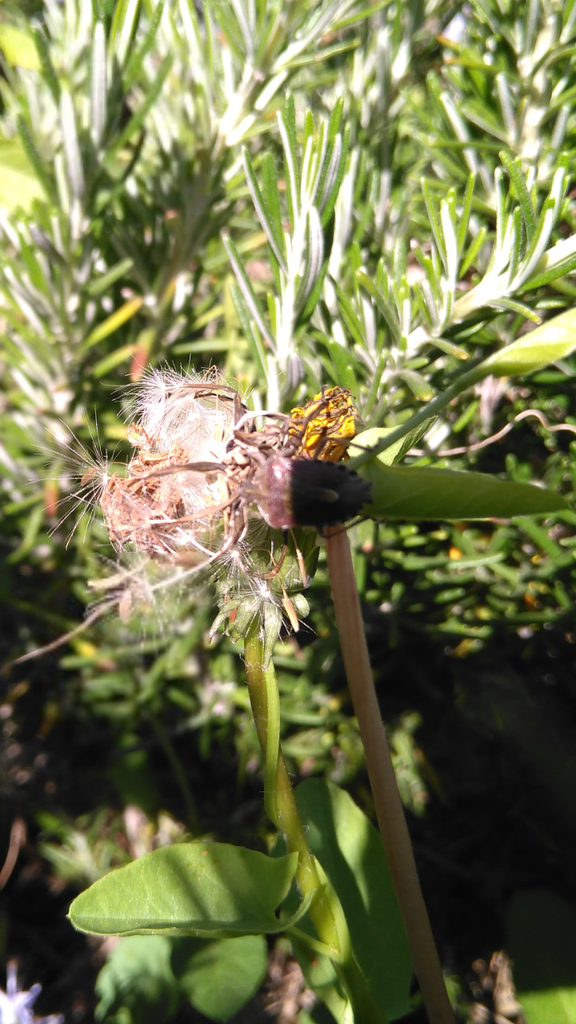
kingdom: Animalia
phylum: Arthropoda
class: Insecta
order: Hemiptera
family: Pentatomidae
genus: Dolycoris
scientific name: Dolycoris baccarum
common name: Sloe bug
